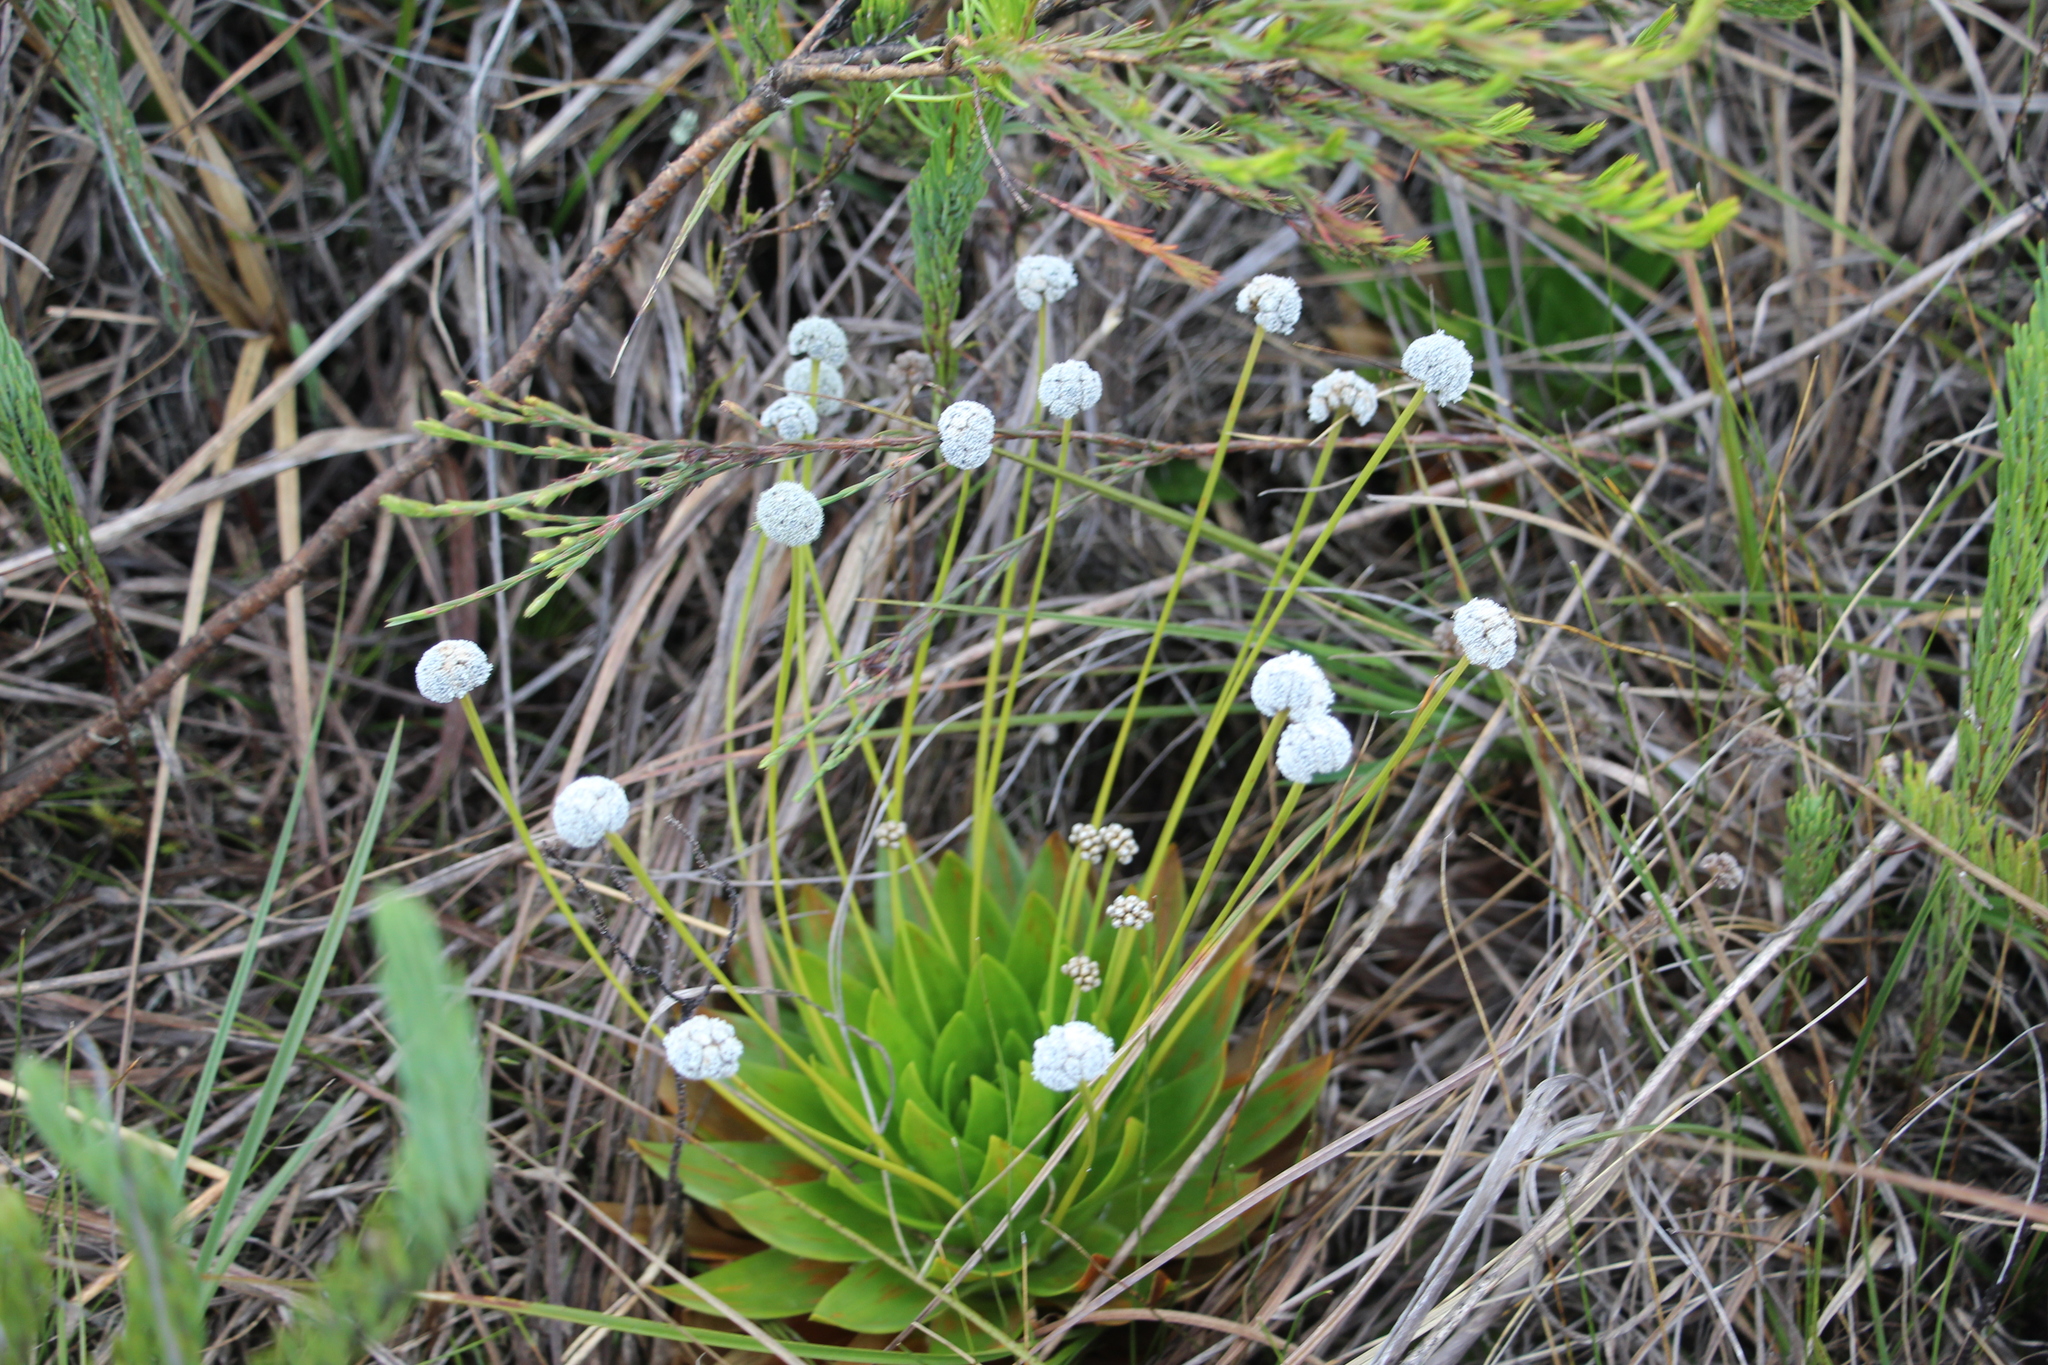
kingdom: Plantae
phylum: Tracheophyta
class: Liliopsida
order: Poales
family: Eriocaulaceae
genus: Paepalanthus
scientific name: Paepalanthus alpinus
